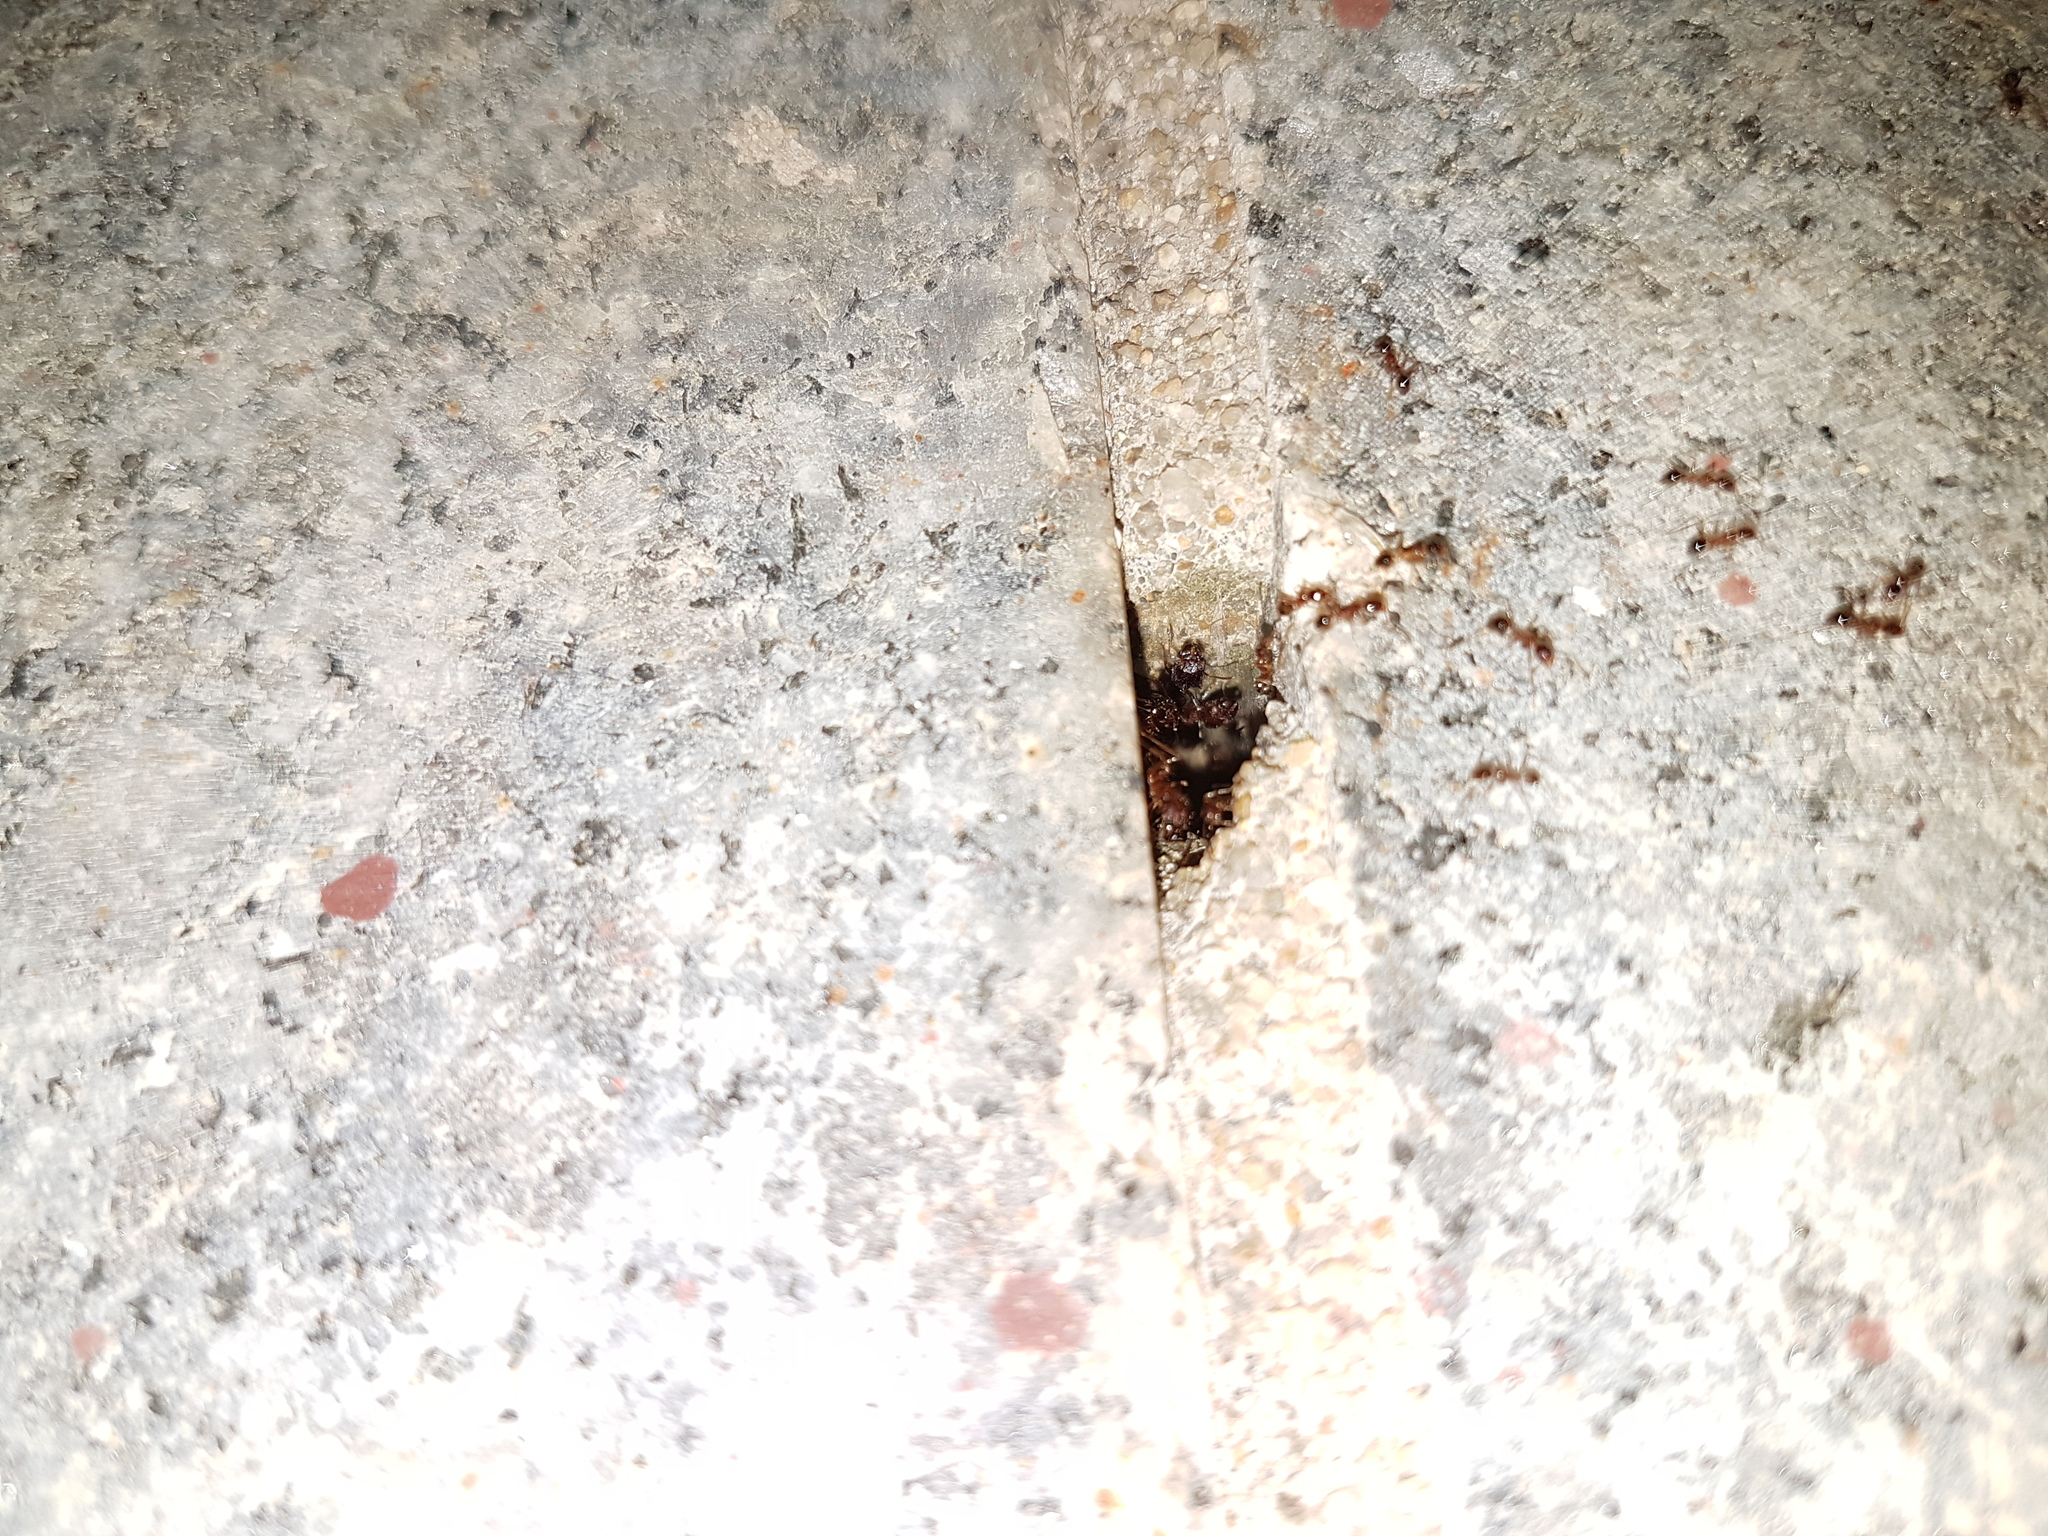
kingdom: Animalia
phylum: Arthropoda
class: Insecta
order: Hymenoptera
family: Formicidae
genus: Pheidole
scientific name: Pheidole indica
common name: Big-headed ant
